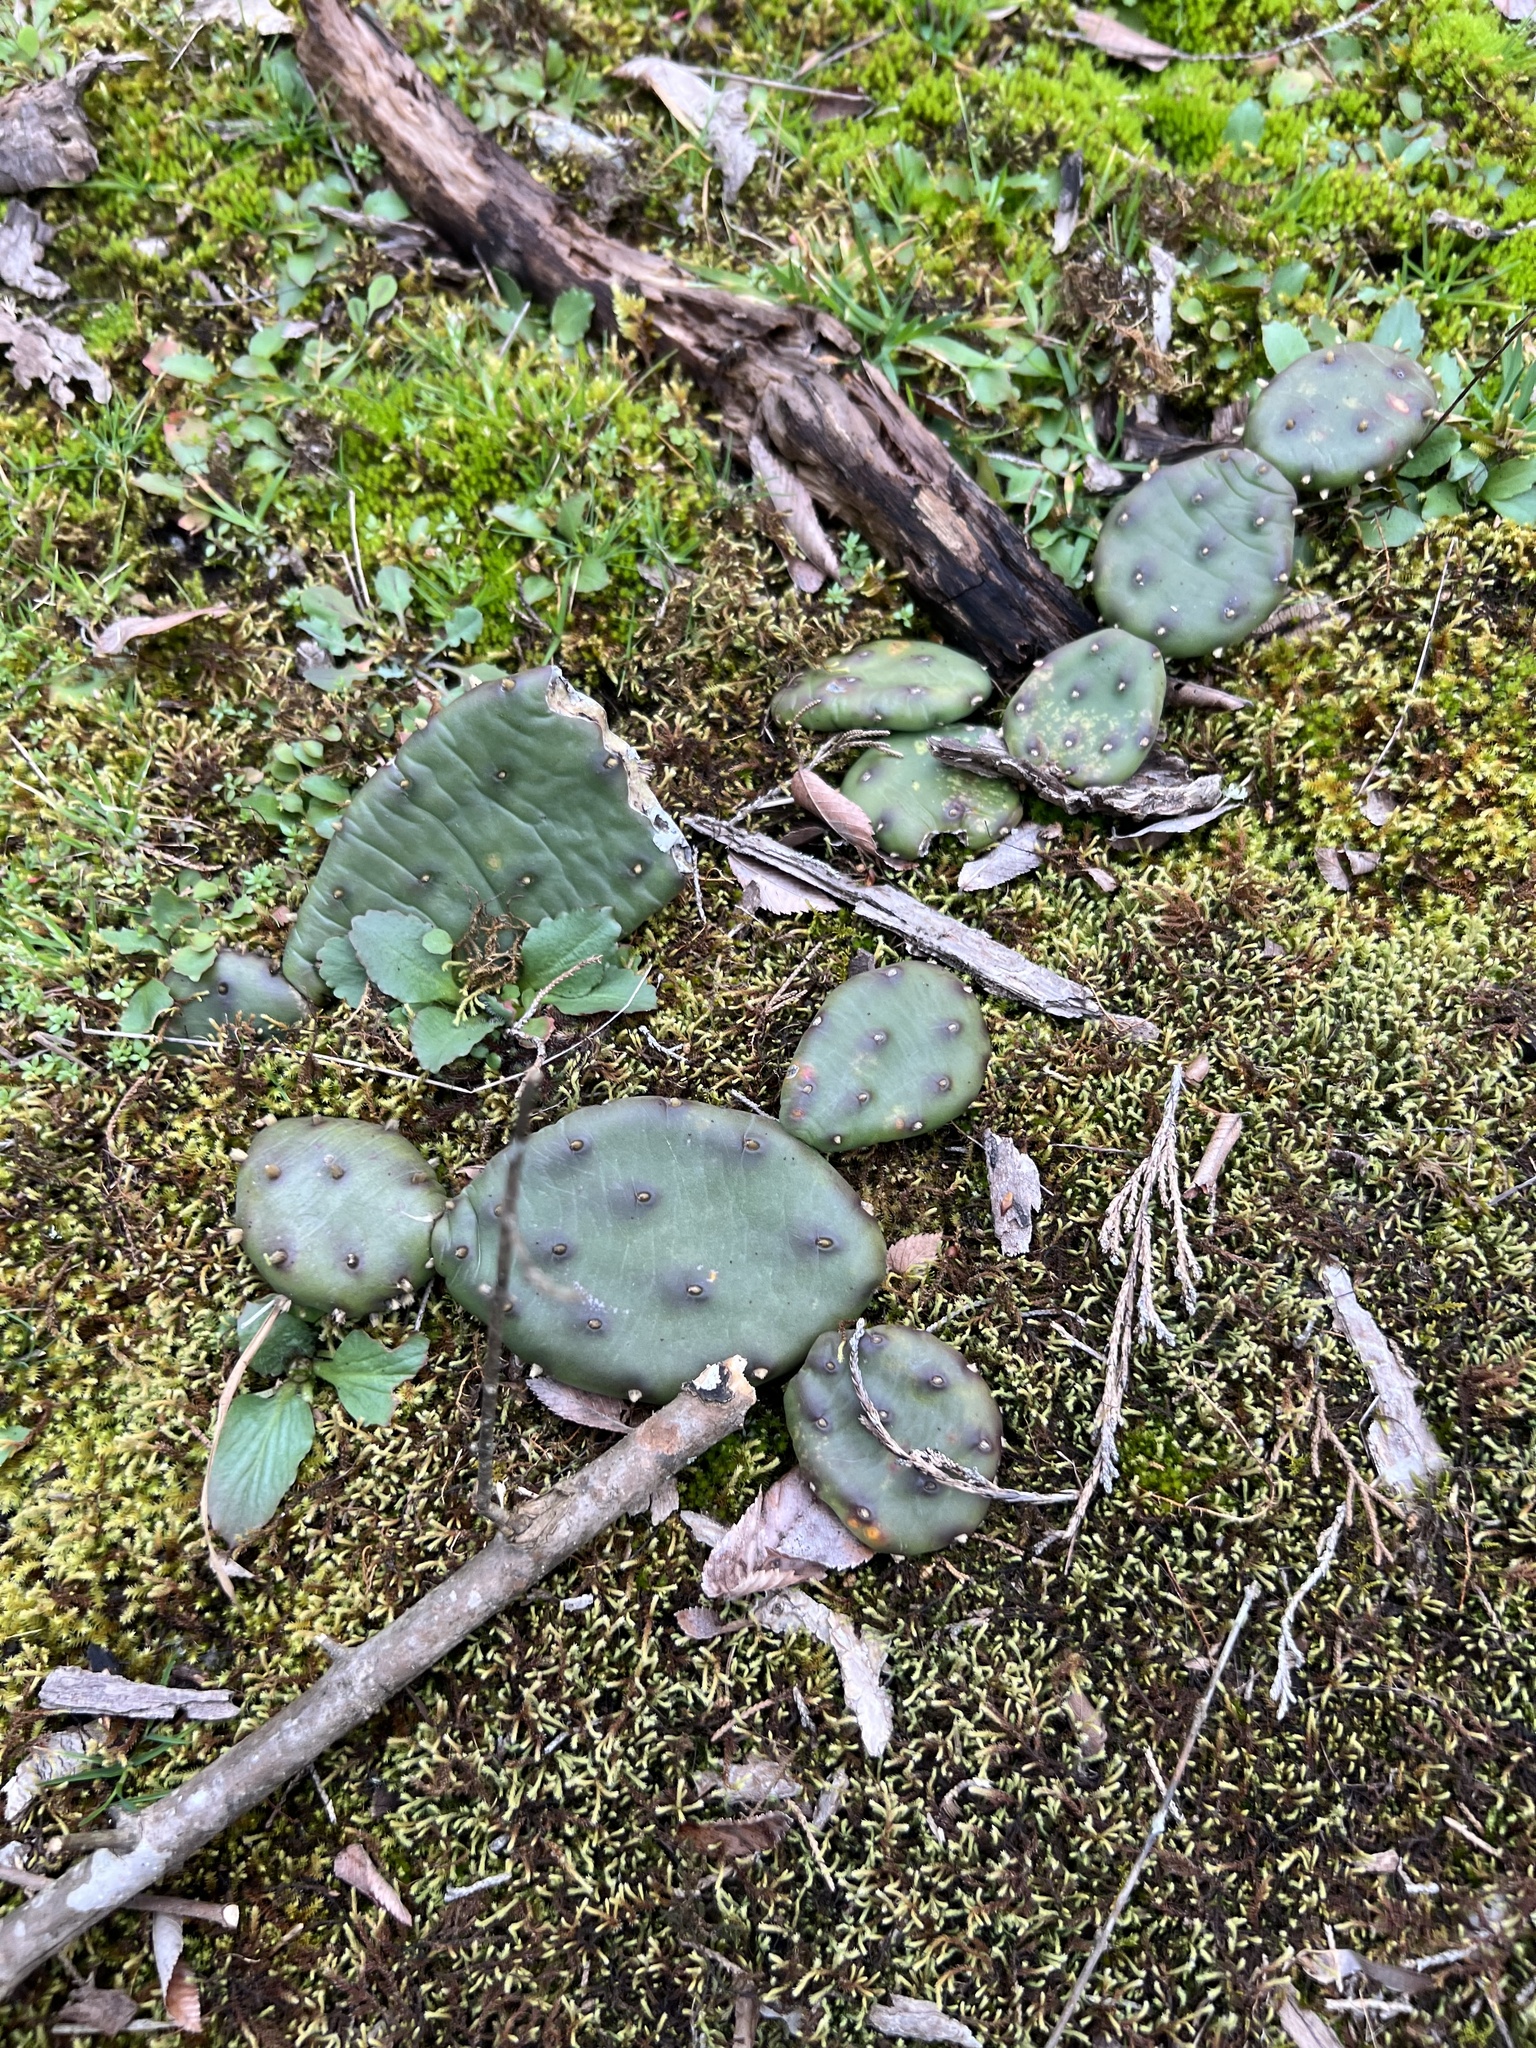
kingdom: Plantae
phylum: Tracheophyta
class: Magnoliopsida
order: Caryophyllales
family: Cactaceae
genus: Opuntia
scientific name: Opuntia mesacantha
